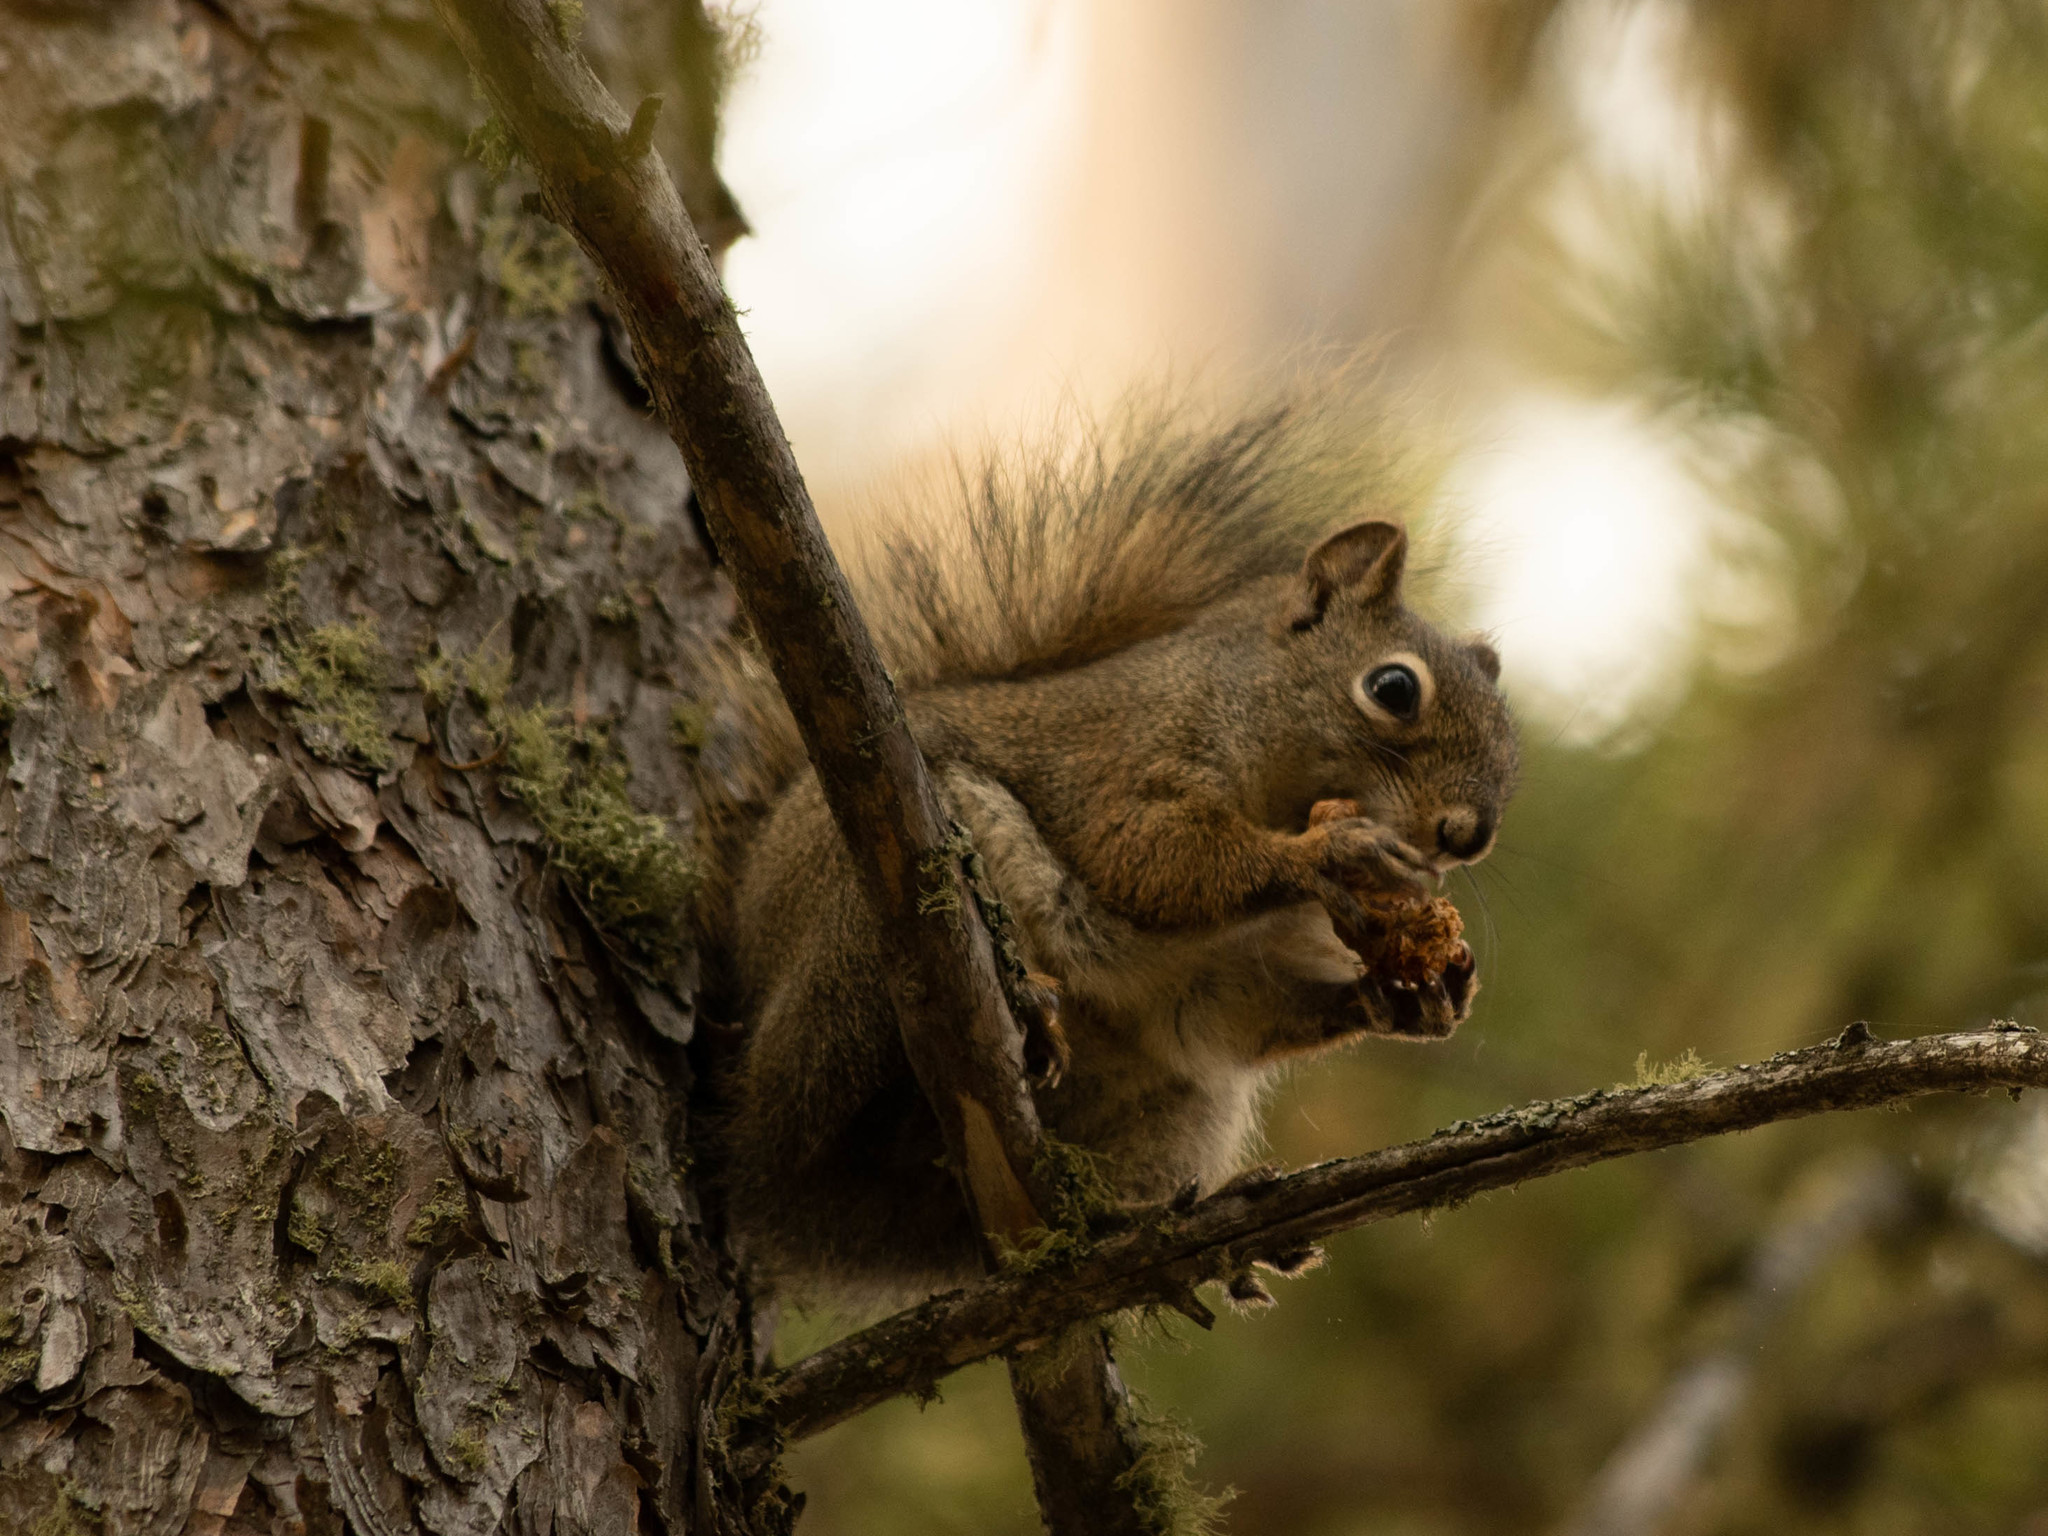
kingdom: Animalia
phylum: Chordata
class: Mammalia
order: Rodentia
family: Sciuridae
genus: Tamiasciurus
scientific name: Tamiasciurus hudsonicus
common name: Red squirrel
